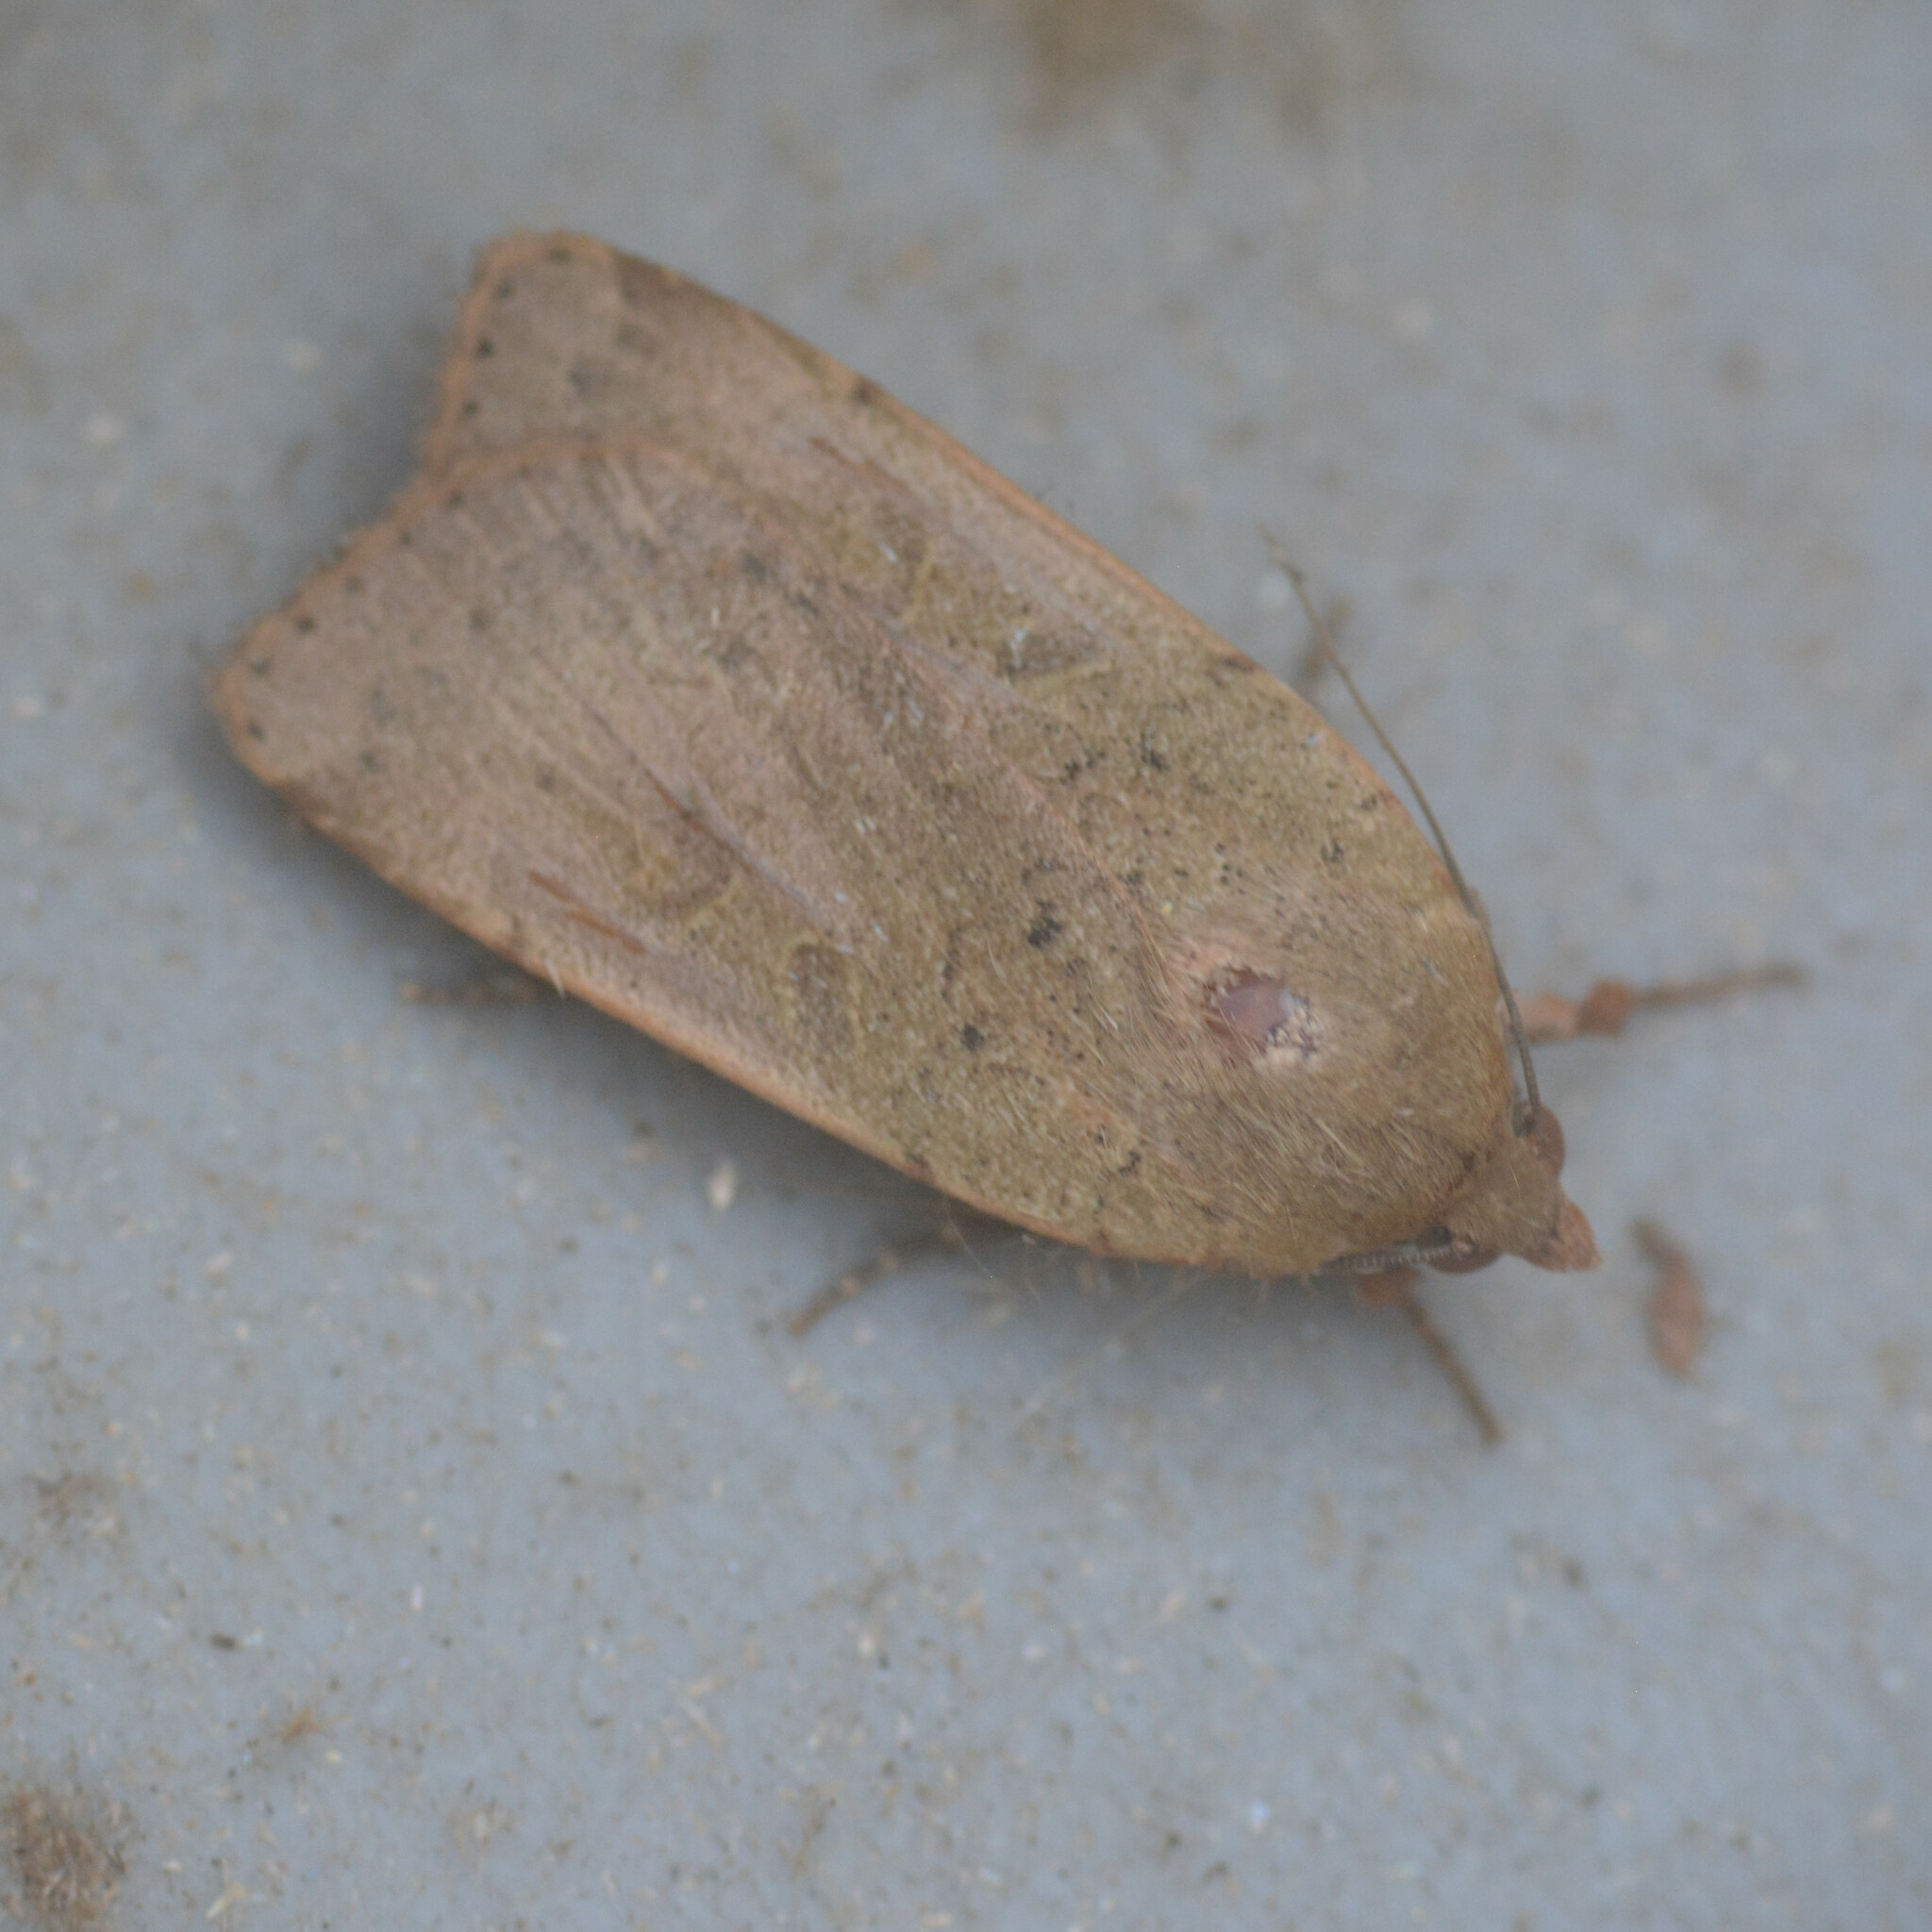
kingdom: Animalia
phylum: Arthropoda
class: Insecta
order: Lepidoptera
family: Noctuidae
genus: Noctua
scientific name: Noctua comes
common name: Lesser yellow underwing
